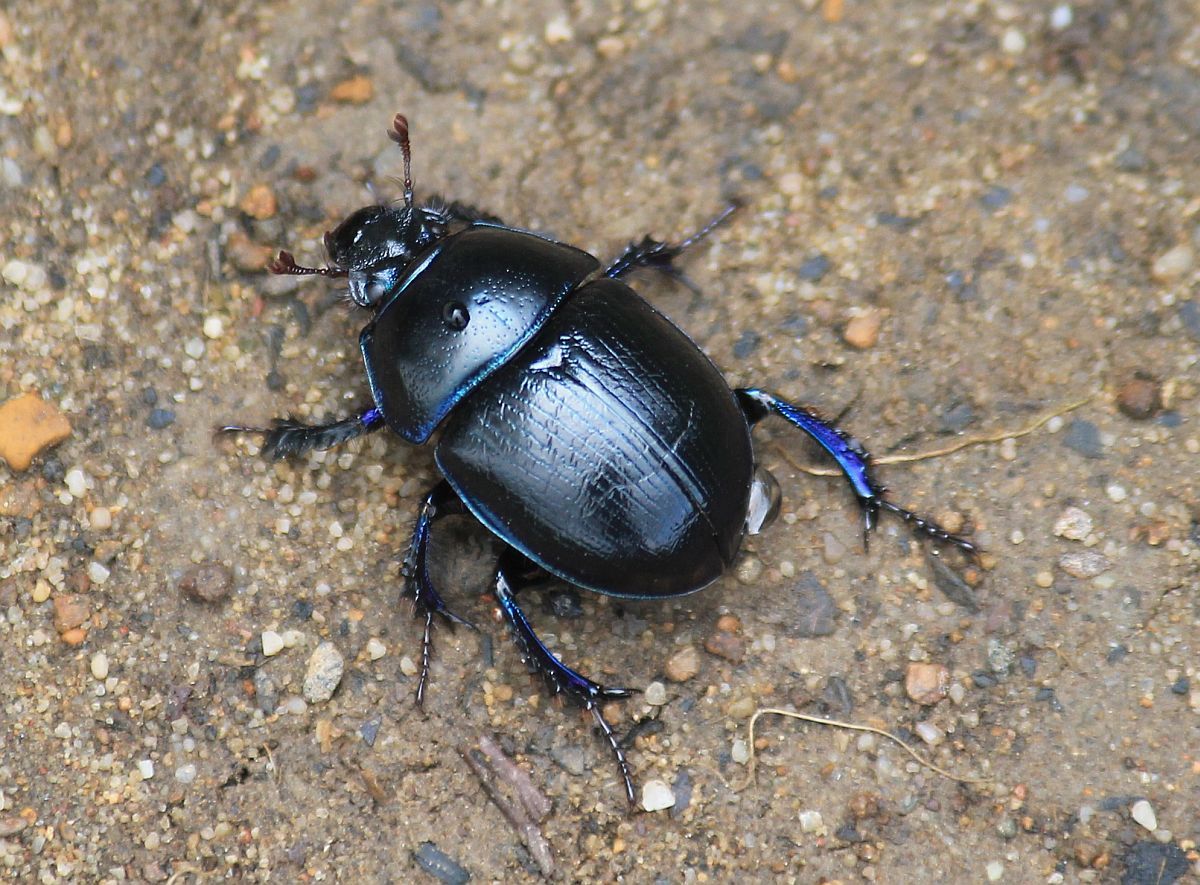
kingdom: Animalia
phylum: Arthropoda
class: Insecta
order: Coleoptera
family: Geotrupidae
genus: Anoplotrupes
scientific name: Anoplotrupes stercorosus
